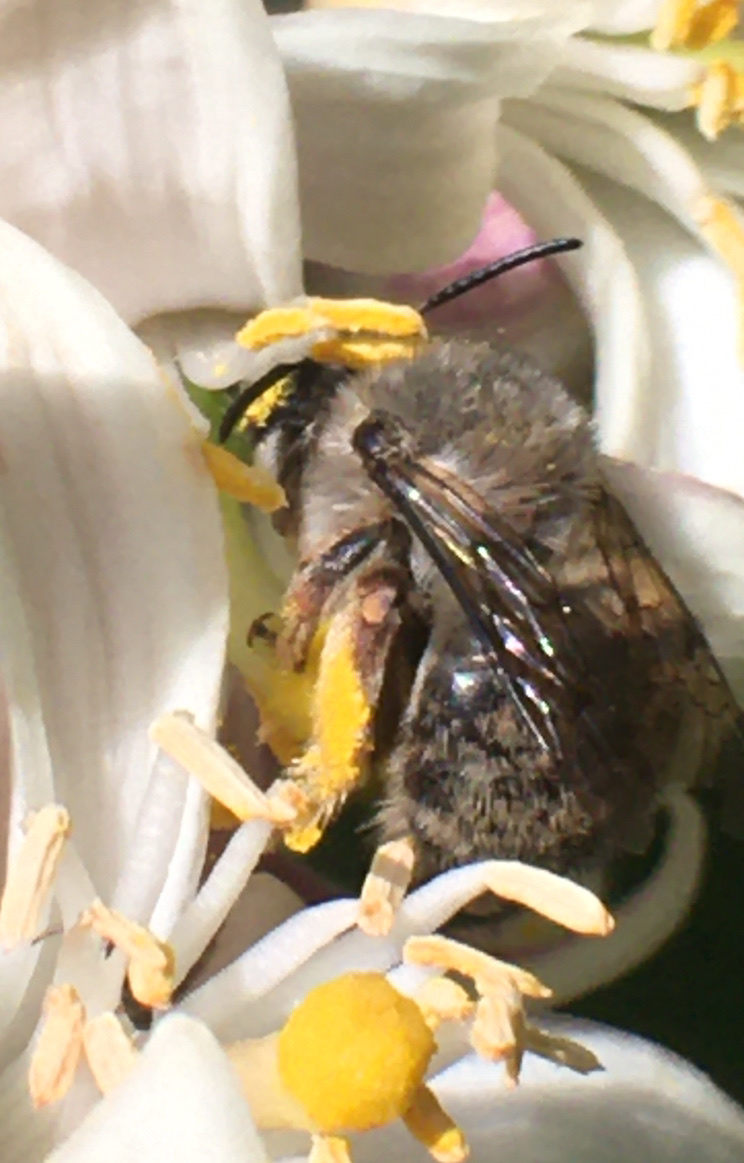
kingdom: Animalia
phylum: Arthropoda
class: Insecta
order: Hymenoptera
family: Apidae
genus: Habropoda
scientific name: Habropoda depressa
